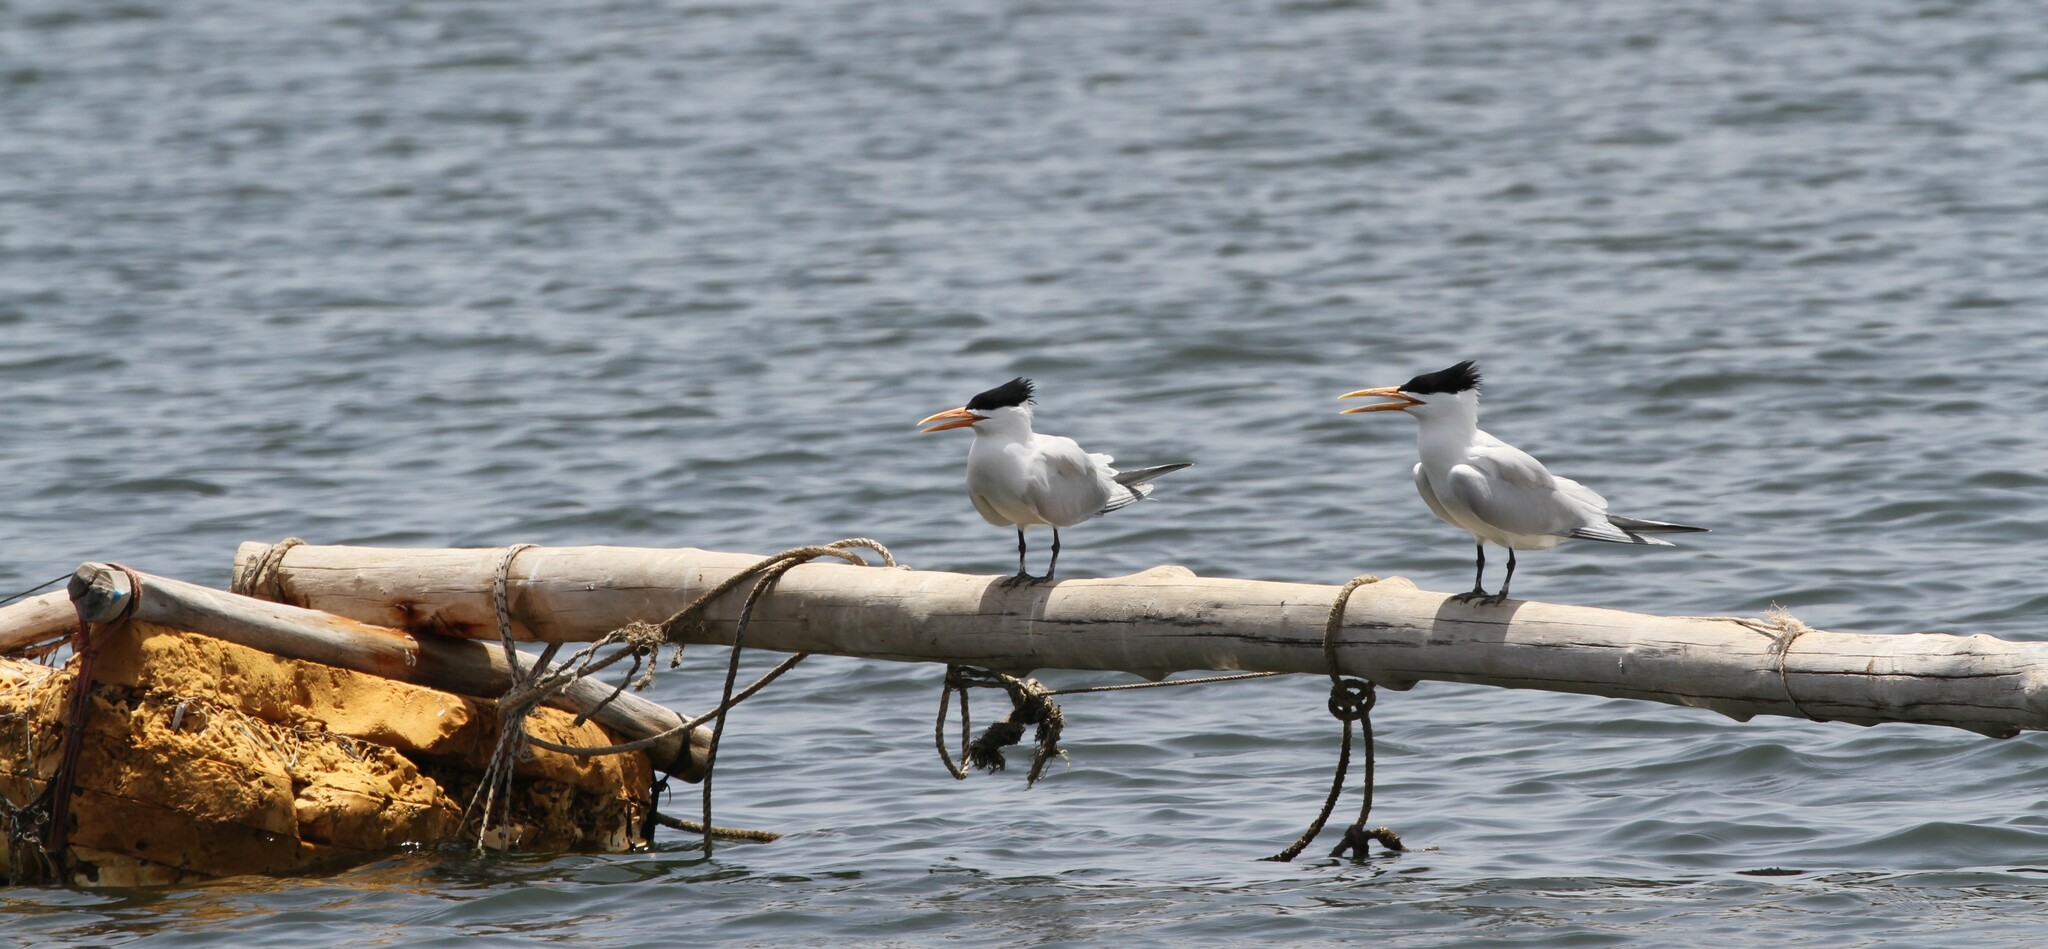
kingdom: Animalia
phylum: Chordata
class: Aves
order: Charadriiformes
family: Laridae
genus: Thalasseus
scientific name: Thalasseus albididorsalis
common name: West african crested tern
